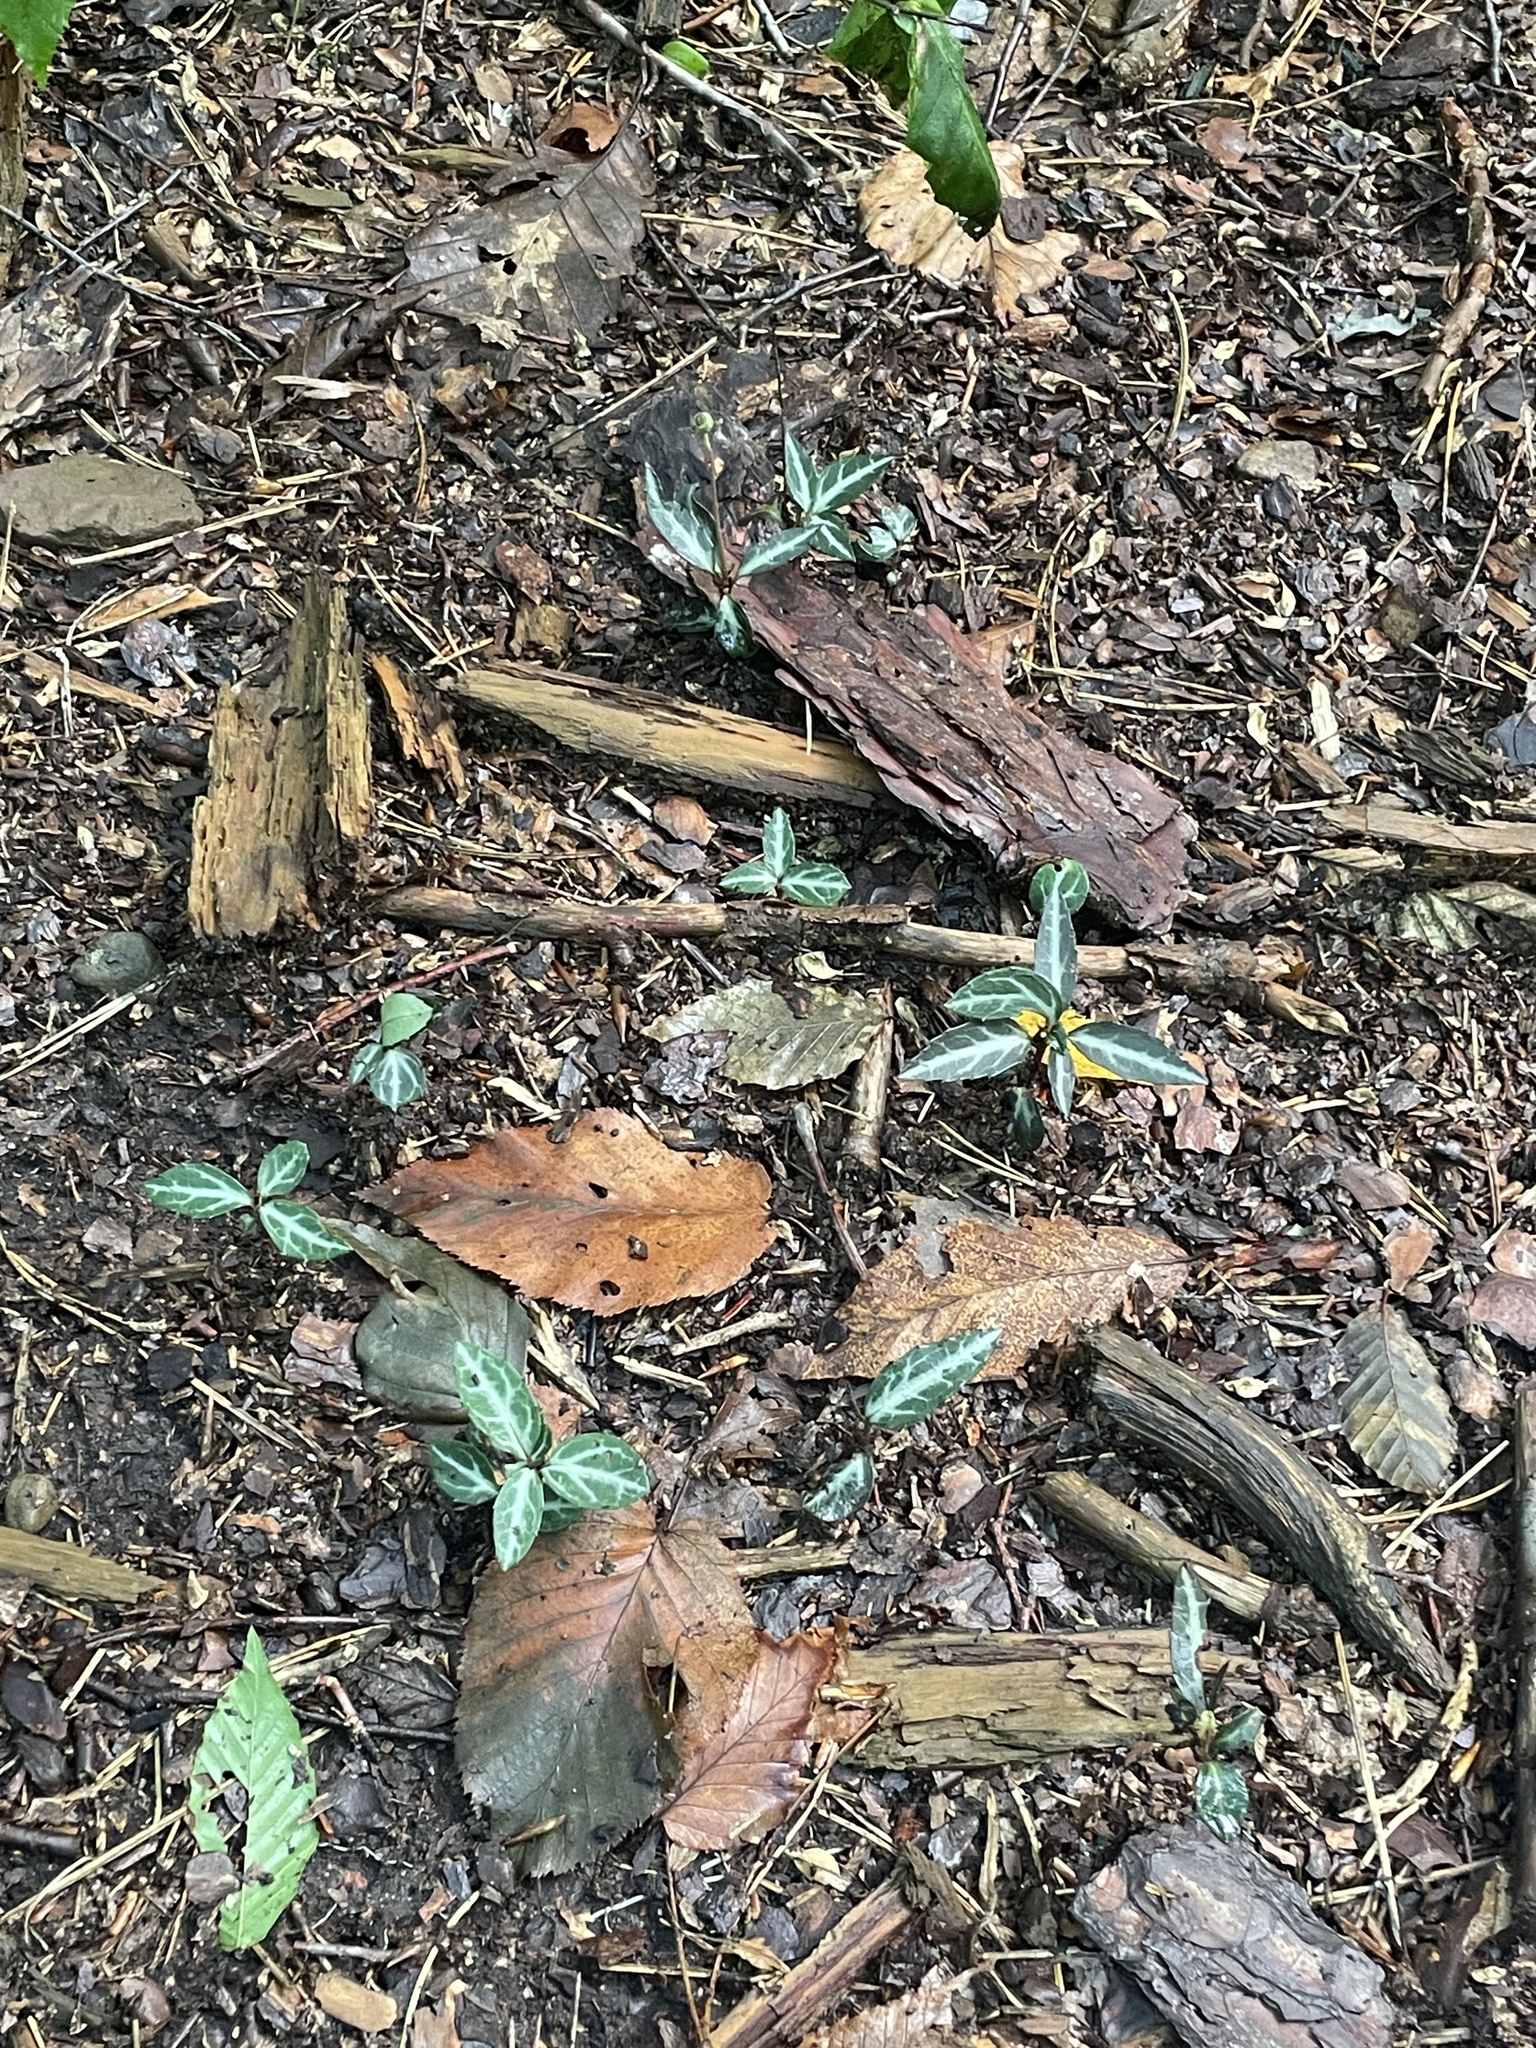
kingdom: Plantae
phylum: Tracheophyta
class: Magnoliopsida
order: Ericales
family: Ericaceae
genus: Chimaphila
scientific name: Chimaphila maculata
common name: Spotted pipsissewa
